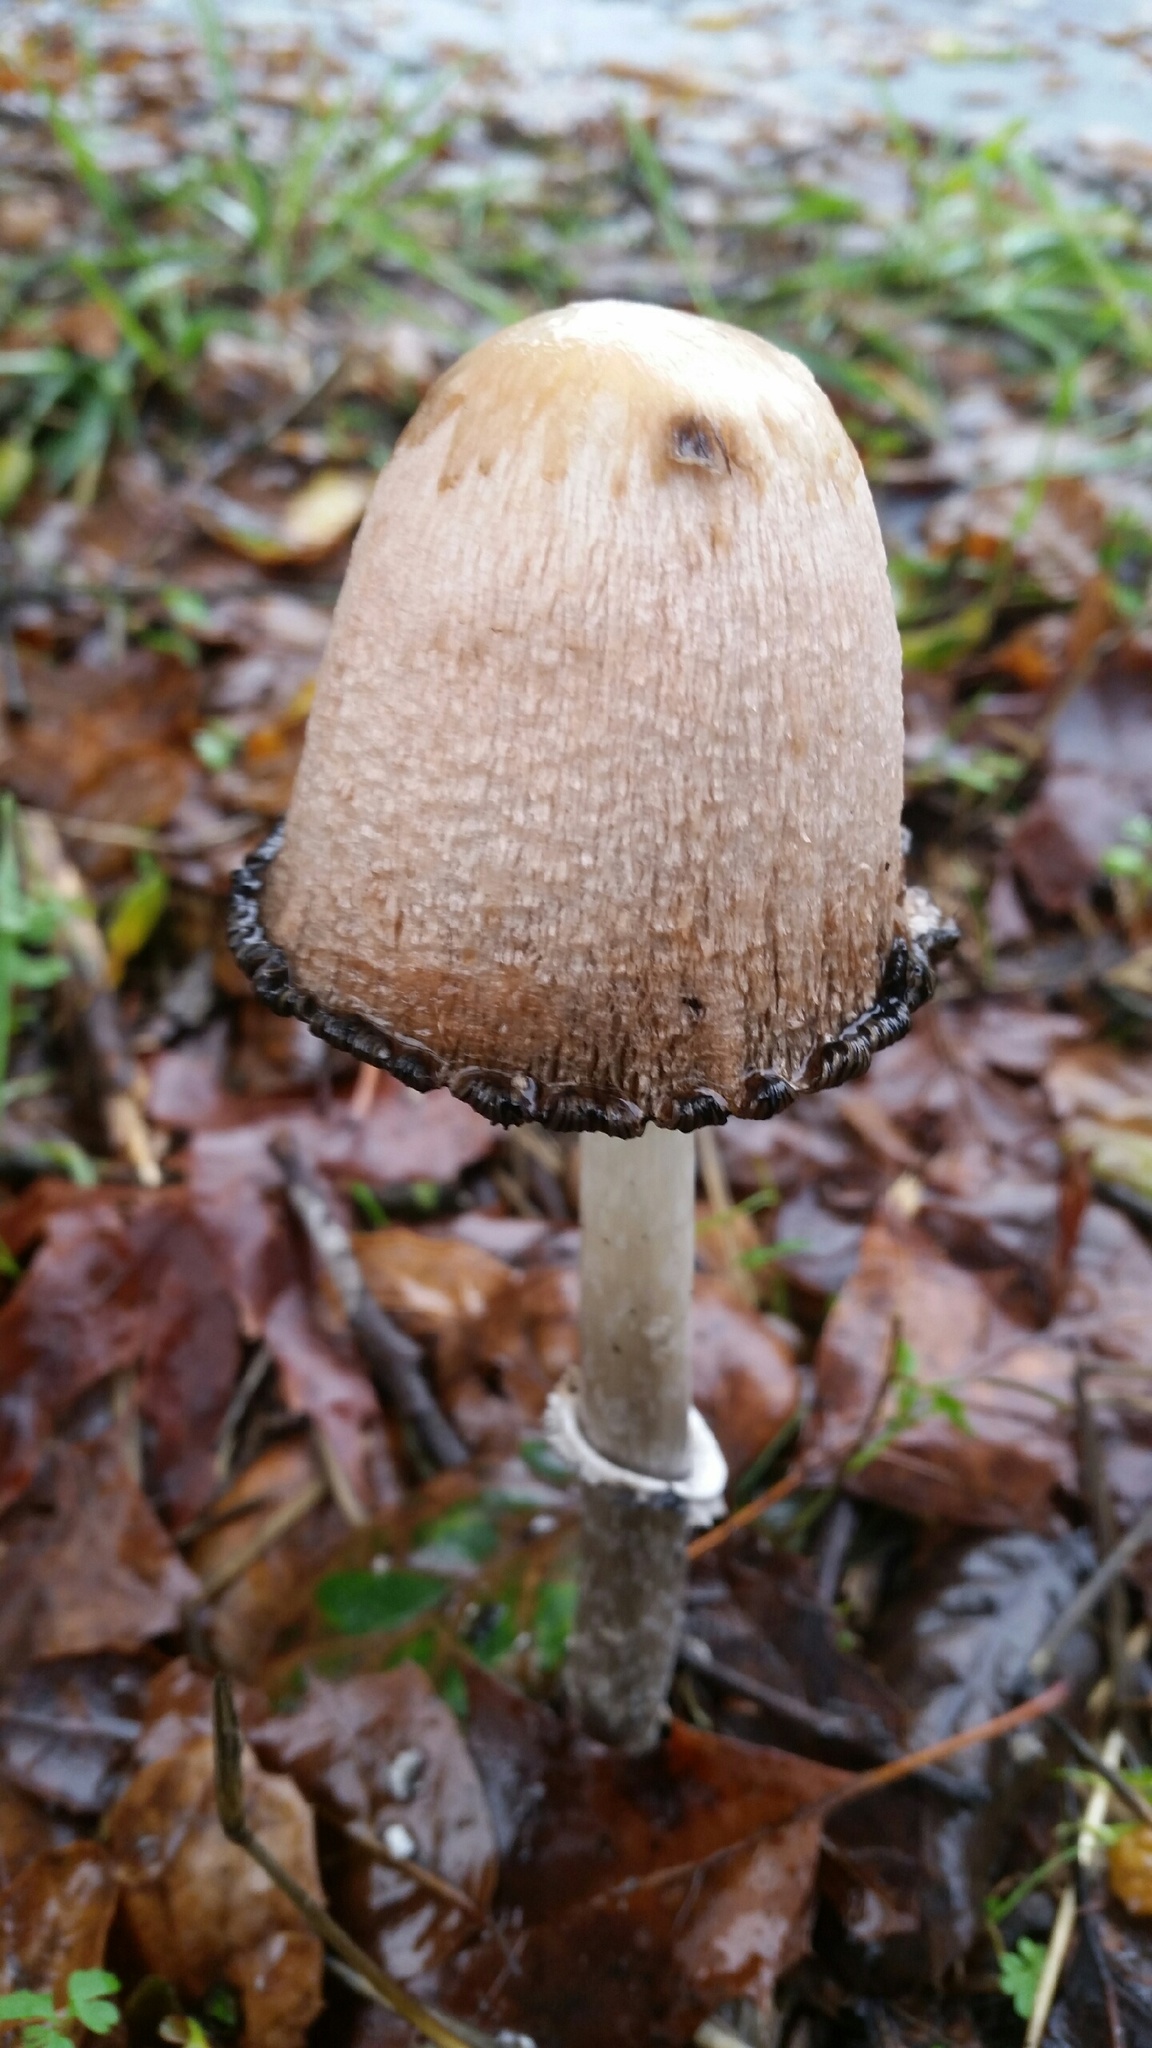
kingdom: Fungi
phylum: Basidiomycota
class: Agaricomycetes
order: Agaricales
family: Agaricaceae
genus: Coprinus
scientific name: Coprinus comatus
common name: Lawyer's wig
